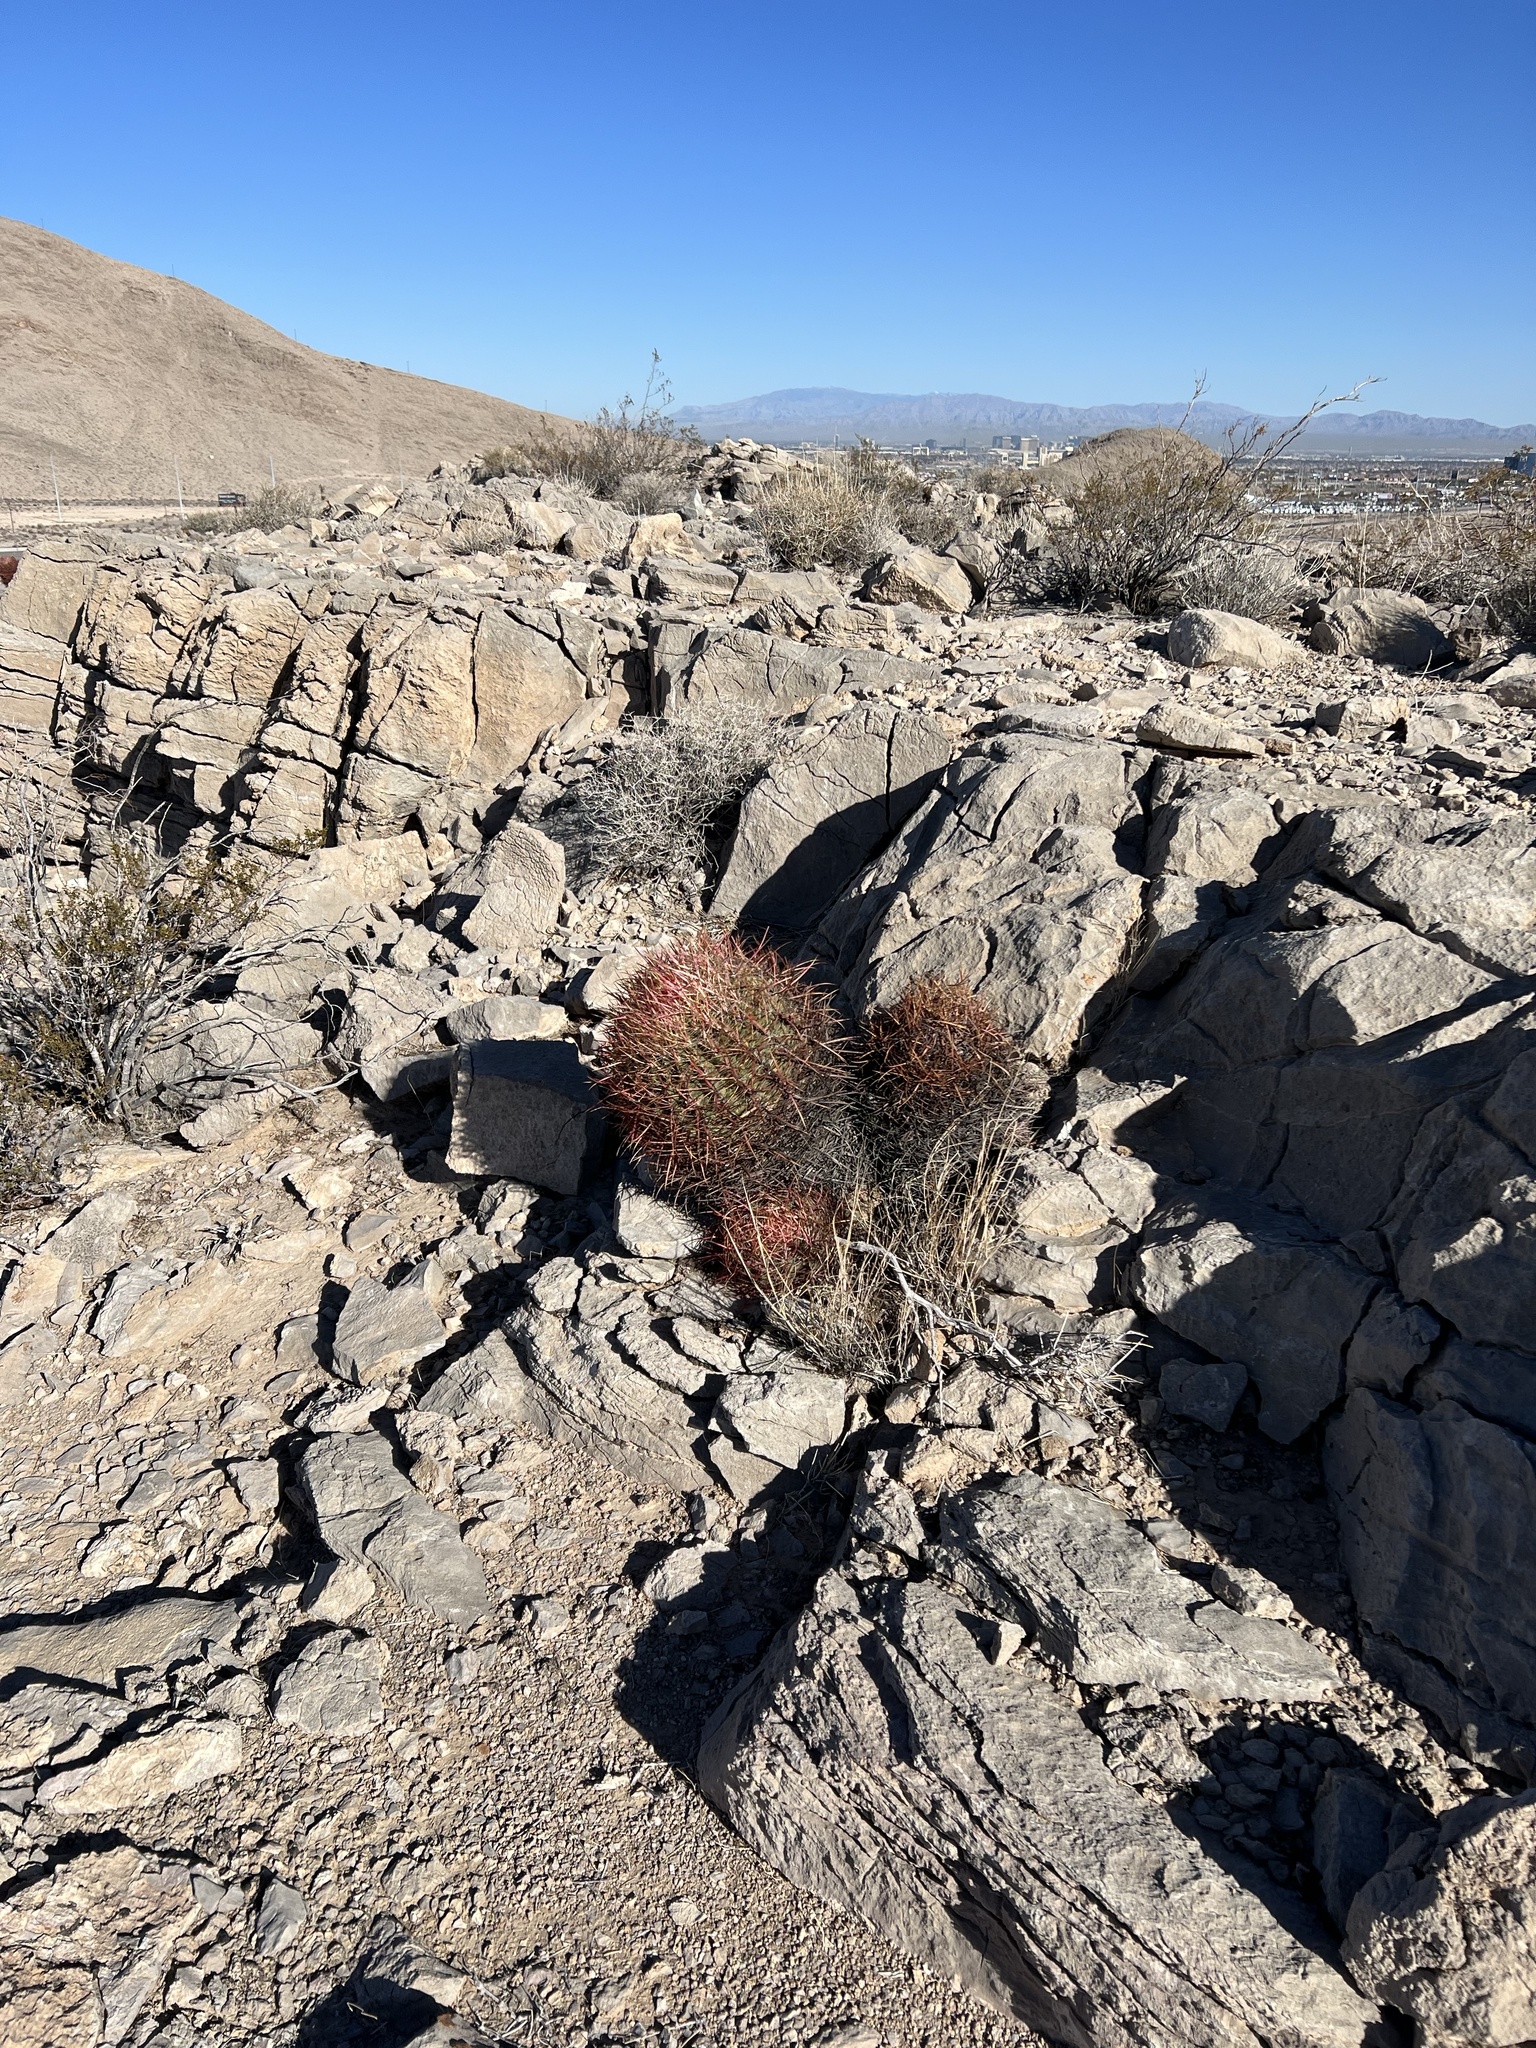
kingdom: Plantae
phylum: Tracheophyta
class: Magnoliopsida
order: Caryophyllales
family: Cactaceae
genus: Ferocactus
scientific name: Ferocactus cylindraceus
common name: California barrel cactus
